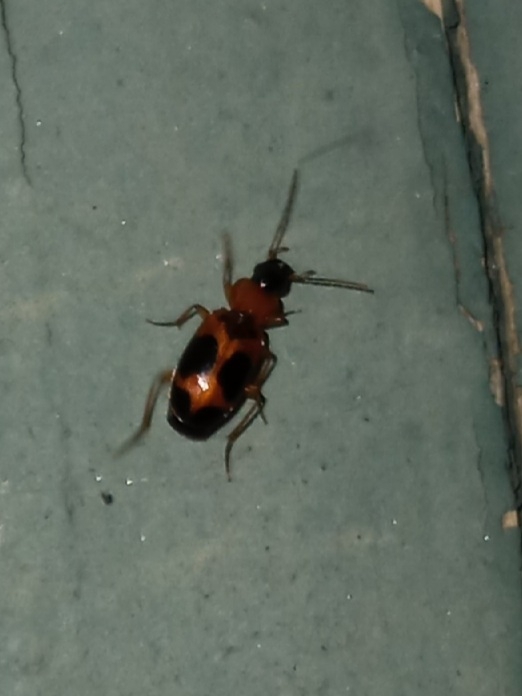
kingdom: Animalia
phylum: Arthropoda
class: Insecta
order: Coleoptera
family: Carabidae
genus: Badister
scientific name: Badister neopulchellus
